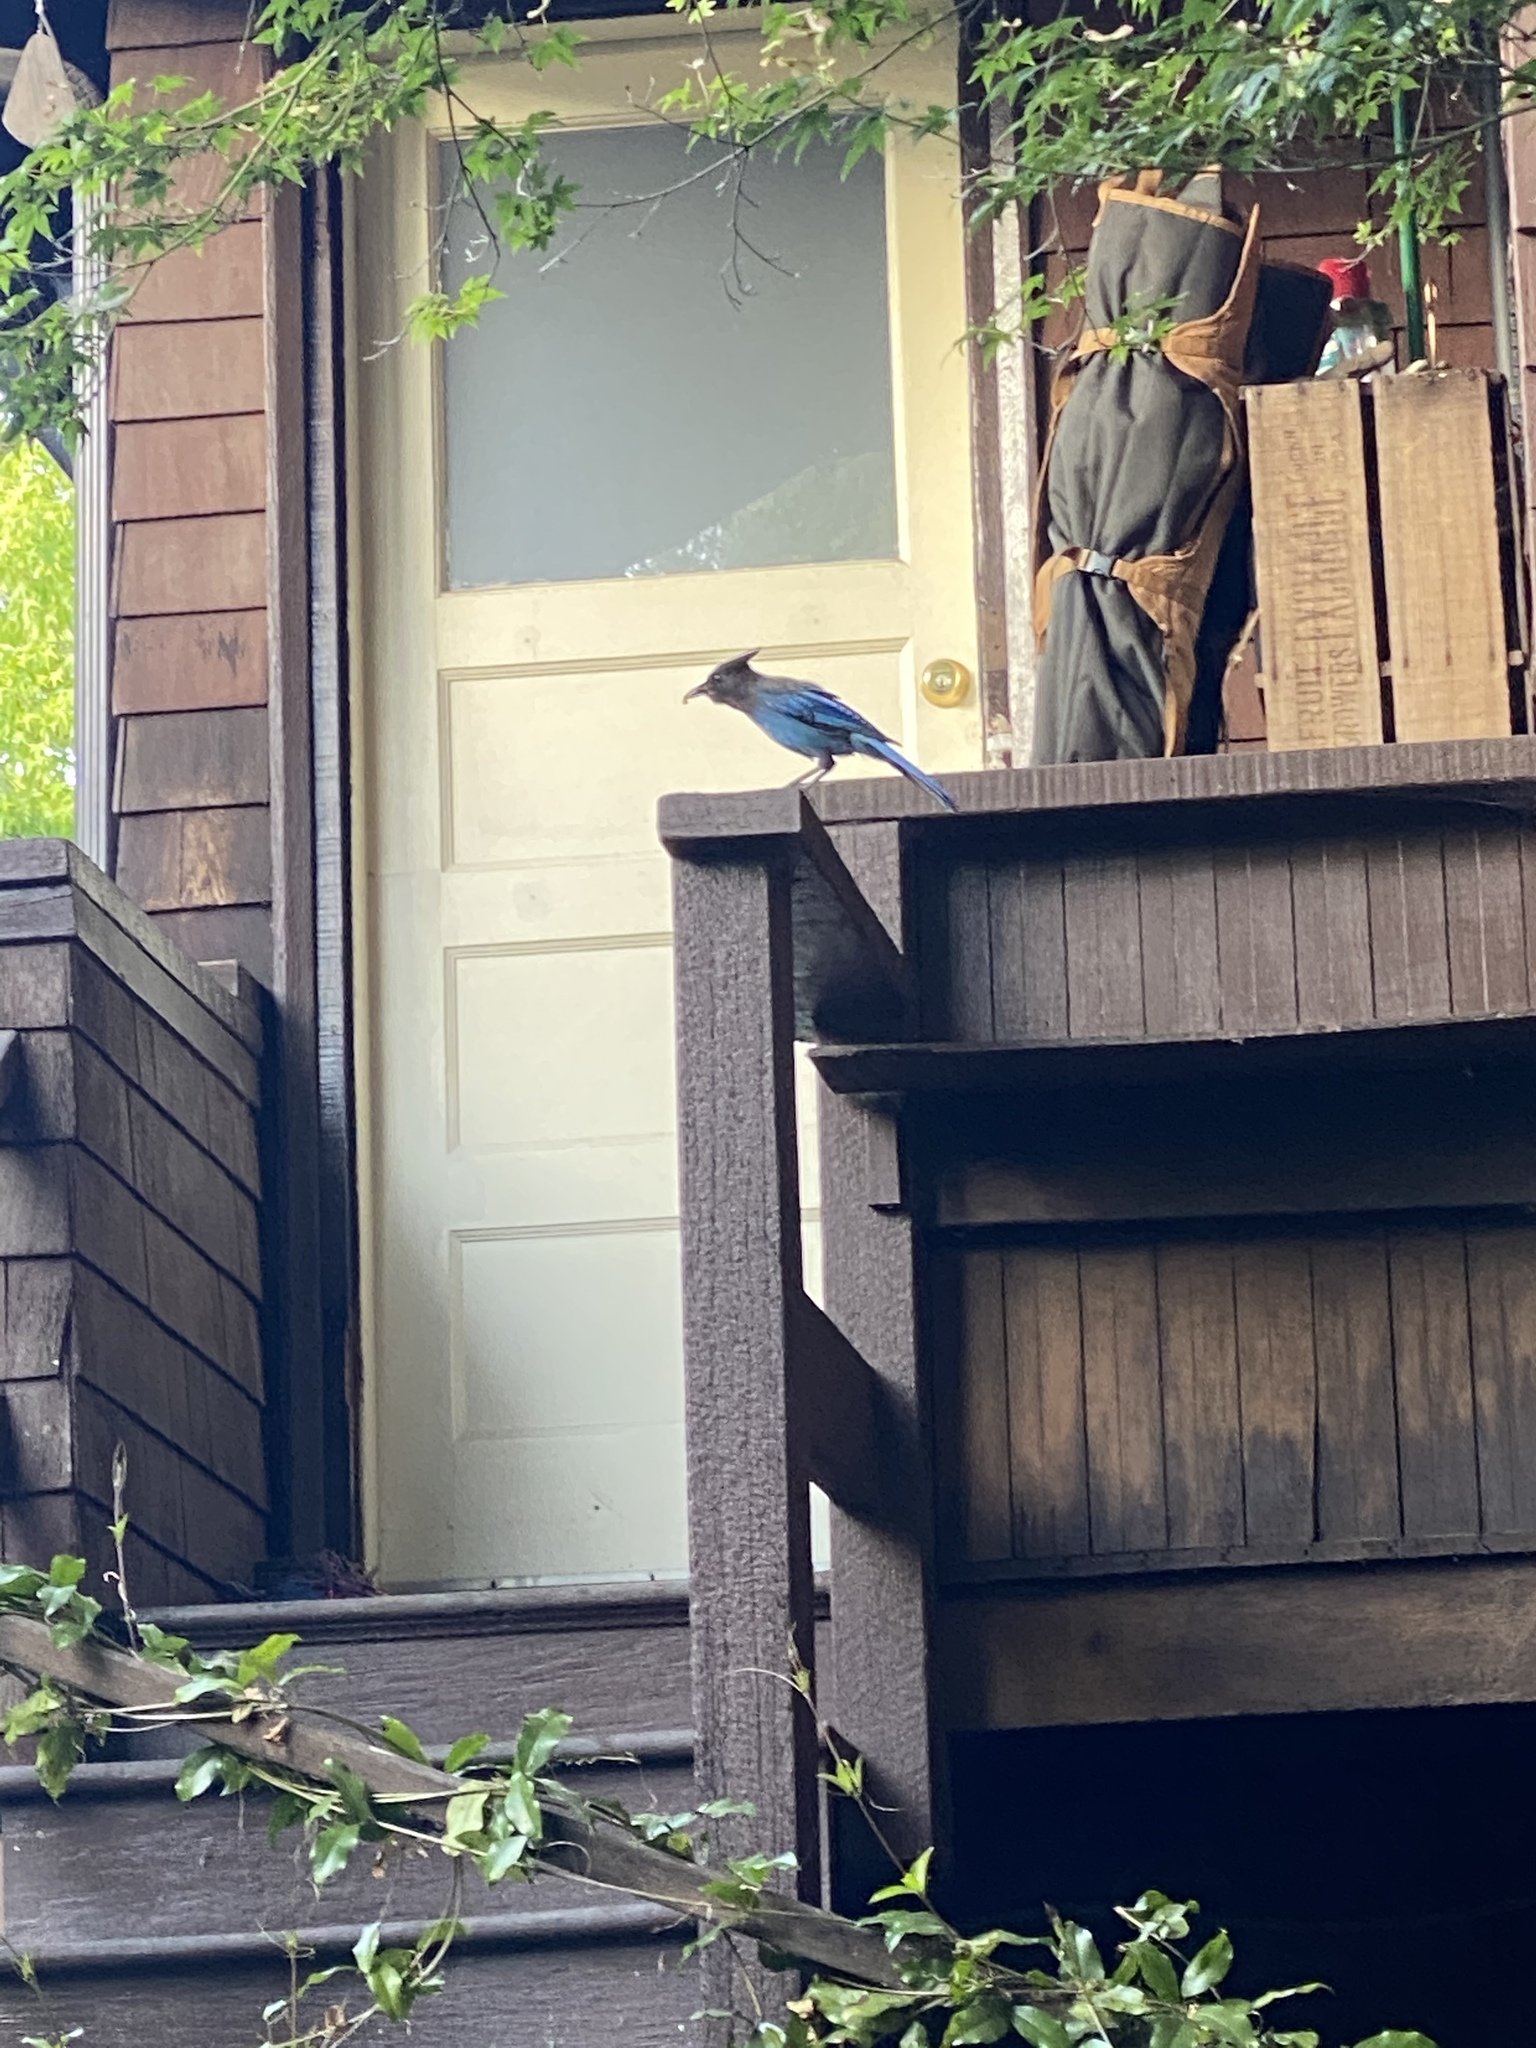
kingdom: Animalia
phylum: Chordata
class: Aves
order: Passeriformes
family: Corvidae
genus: Cyanocitta
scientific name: Cyanocitta stelleri
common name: Steller's jay
